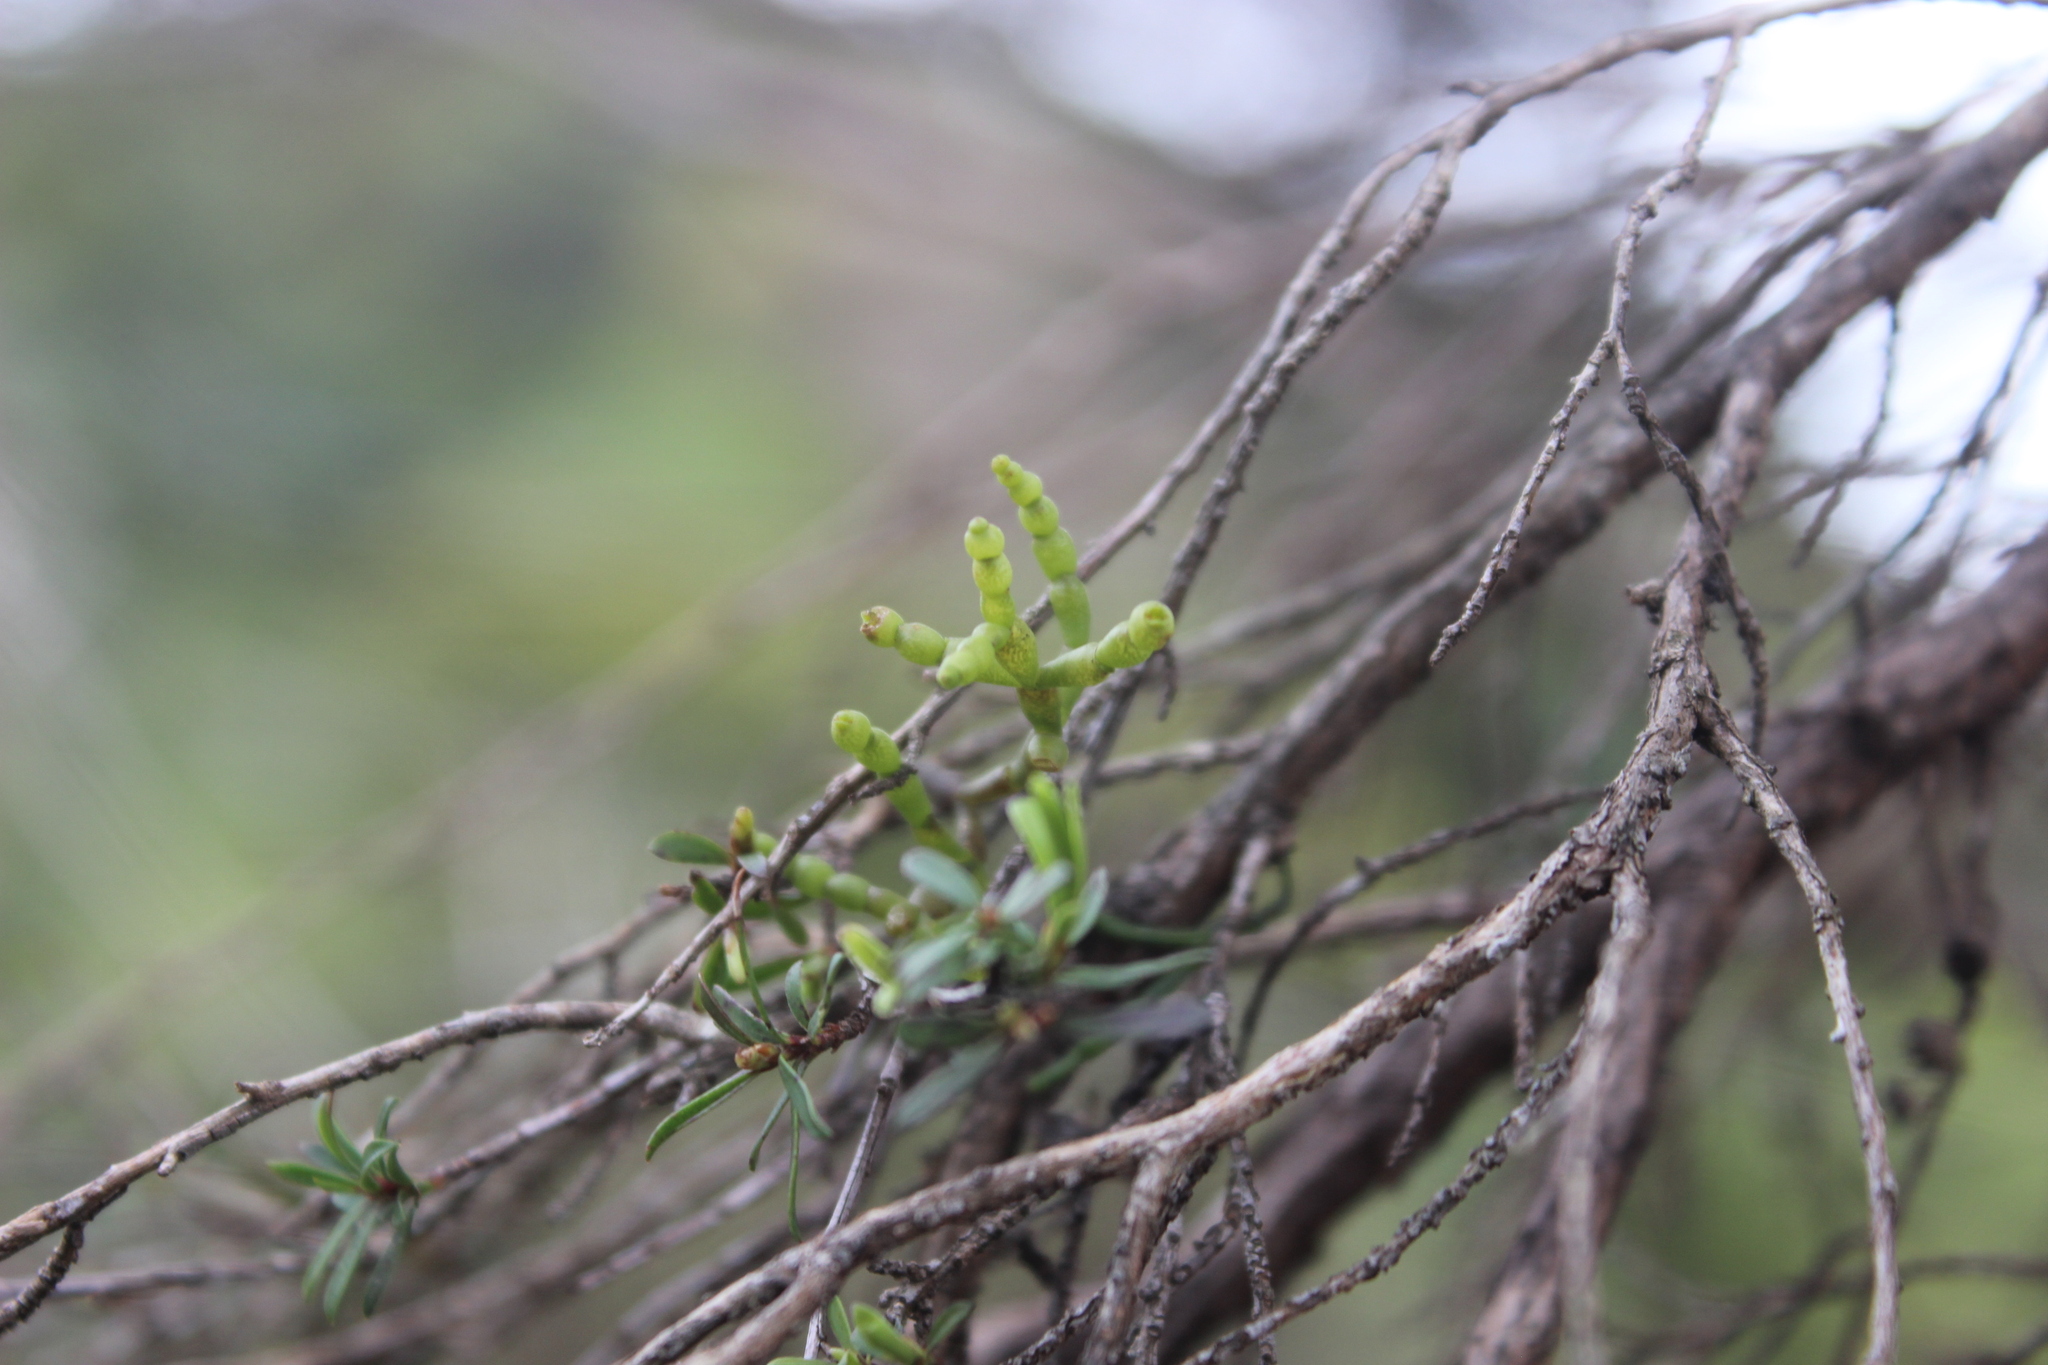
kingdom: Plantae
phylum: Tracheophyta
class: Magnoliopsida
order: Santalales
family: Viscaceae
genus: Korthalsella
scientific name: Korthalsella salicornioides
